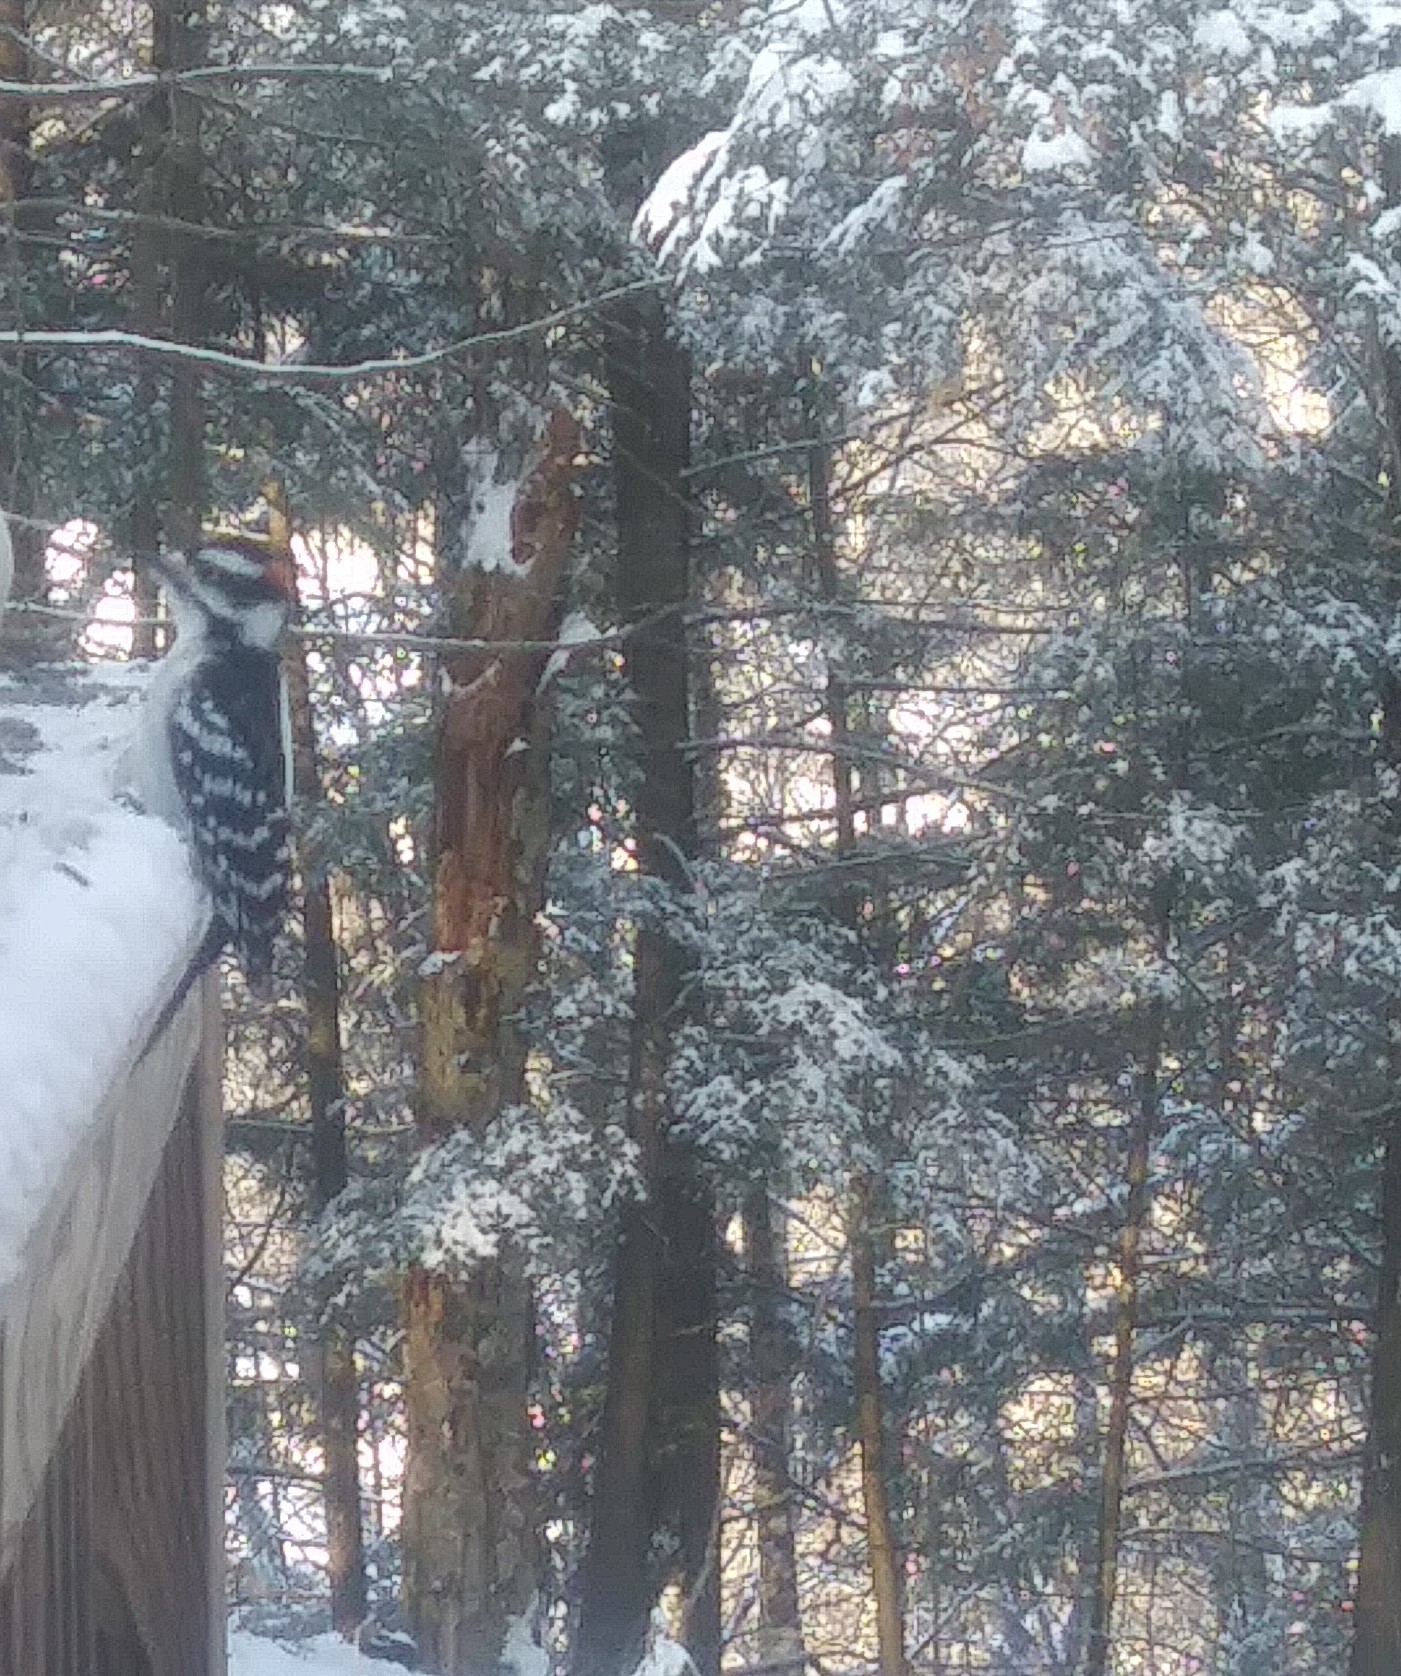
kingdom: Animalia
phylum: Chordata
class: Aves
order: Piciformes
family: Picidae
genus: Dryobates
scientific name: Dryobates pubescens
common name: Downy woodpecker
